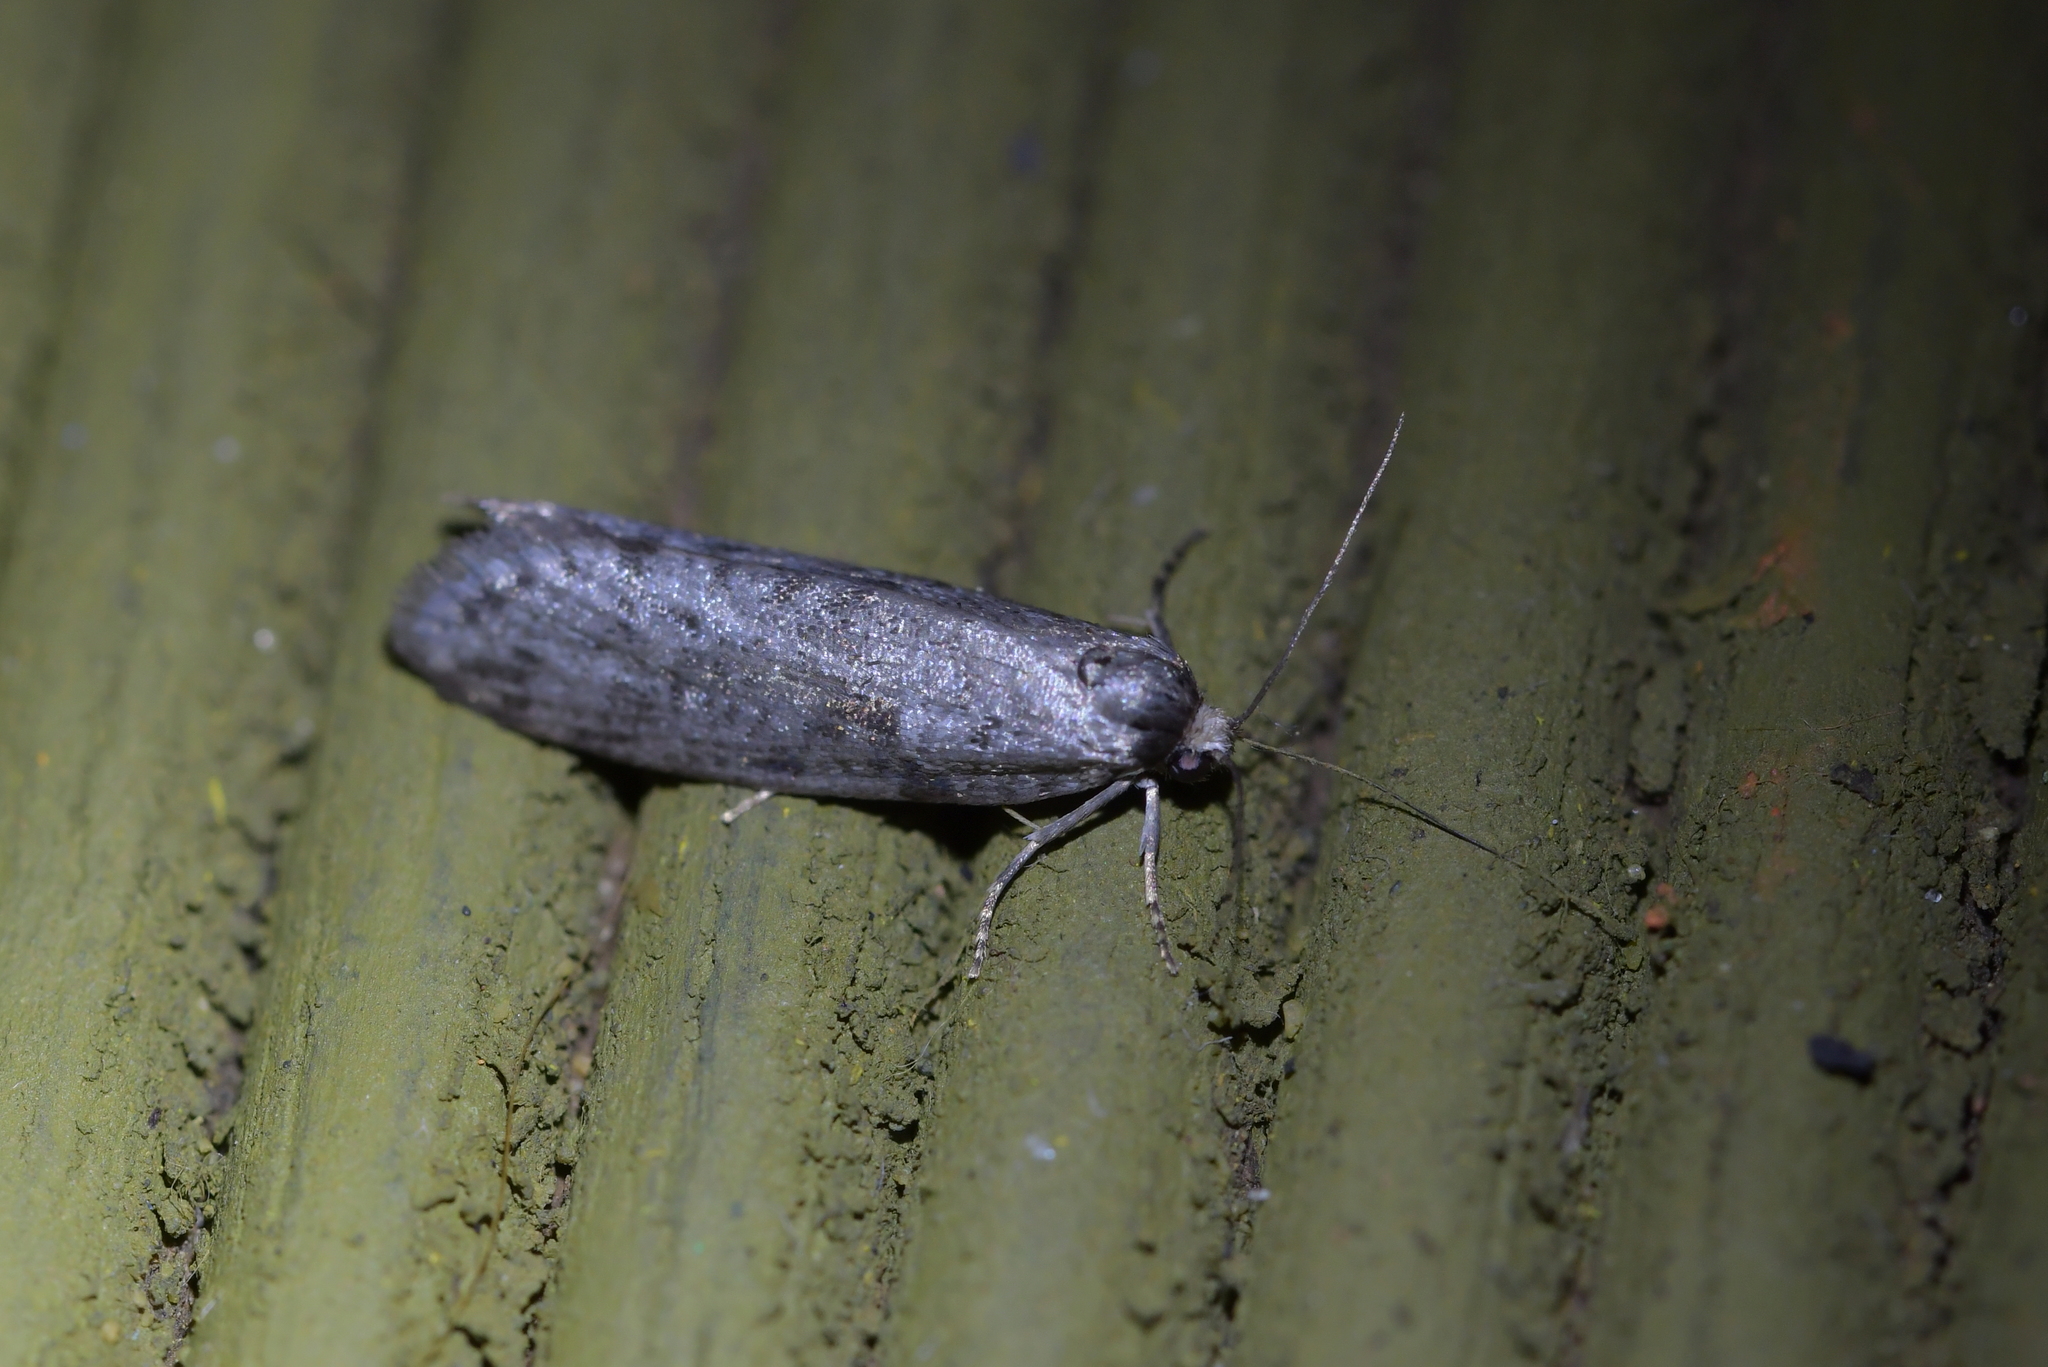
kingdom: Animalia
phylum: Arthropoda
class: Insecta
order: Lepidoptera
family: Psychidae
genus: Lepidoscia
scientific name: Lepidoscia protorna
